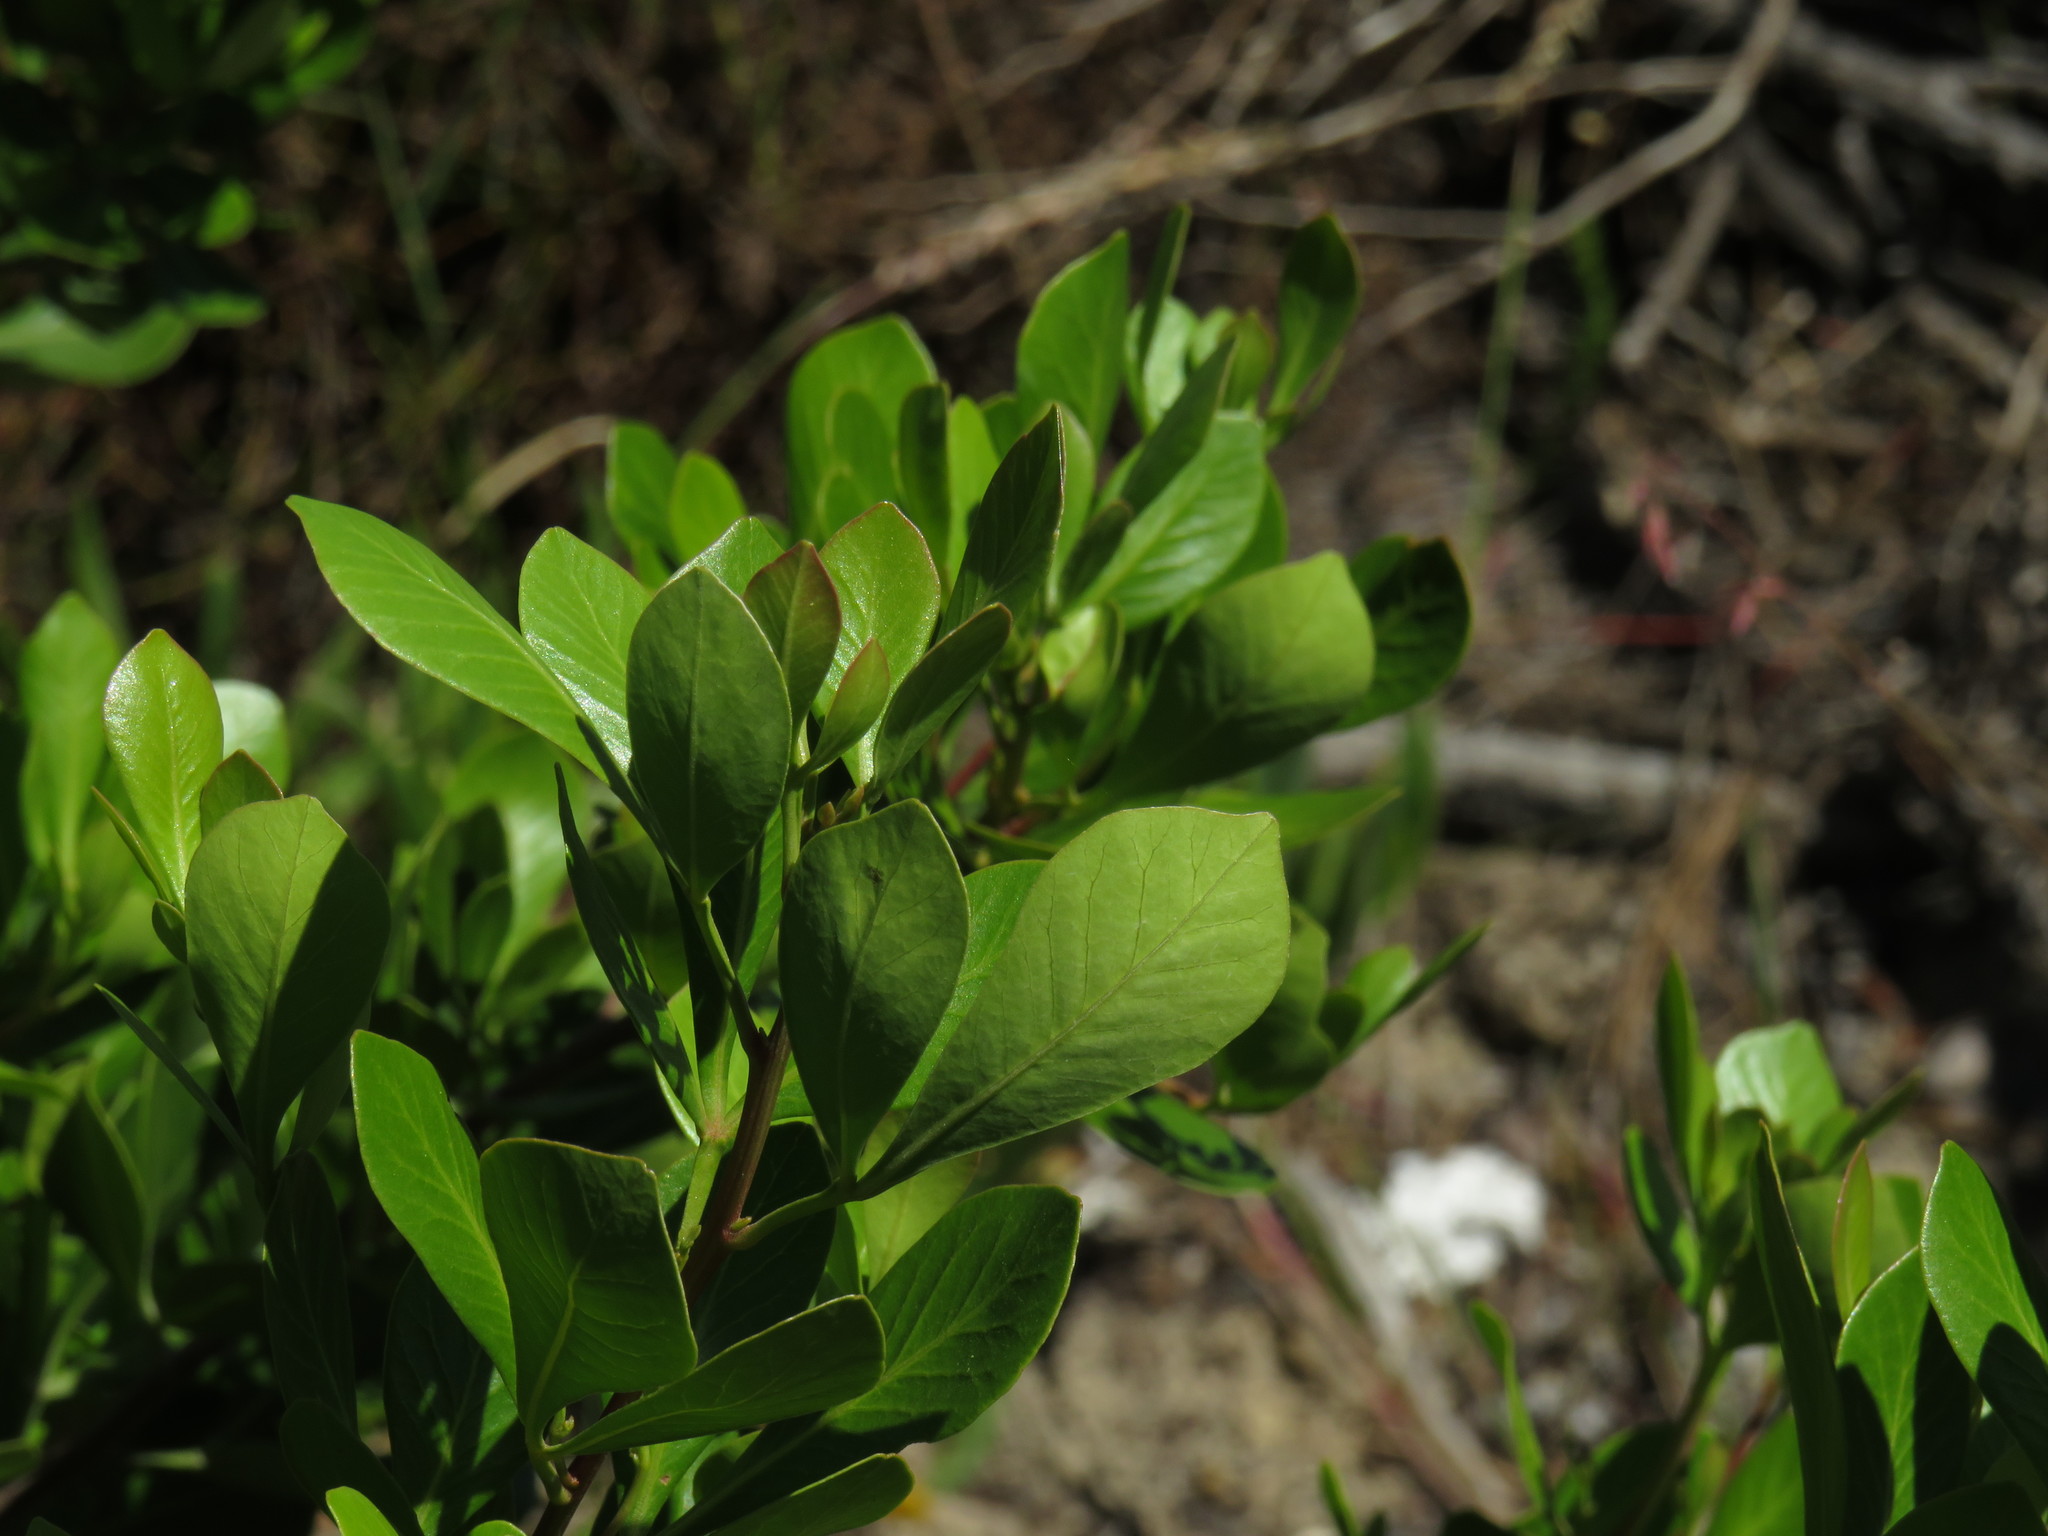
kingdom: Plantae
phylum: Tracheophyta
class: Magnoliopsida
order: Sapindales
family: Anacardiaceae
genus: Searsia
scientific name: Searsia lucida
